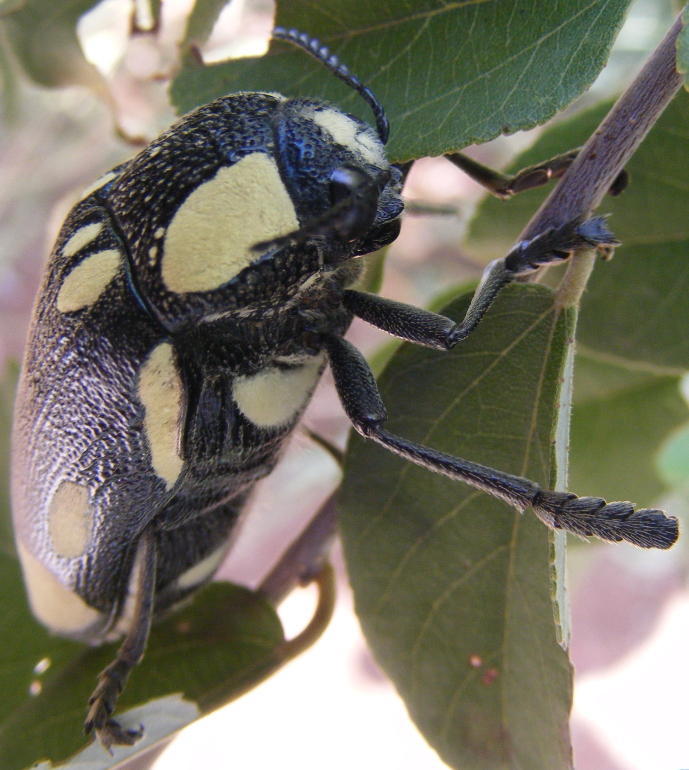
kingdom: Animalia
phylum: Arthropoda
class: Insecta
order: Coleoptera
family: Buprestidae
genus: Sternocera
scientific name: Sternocera orissa
